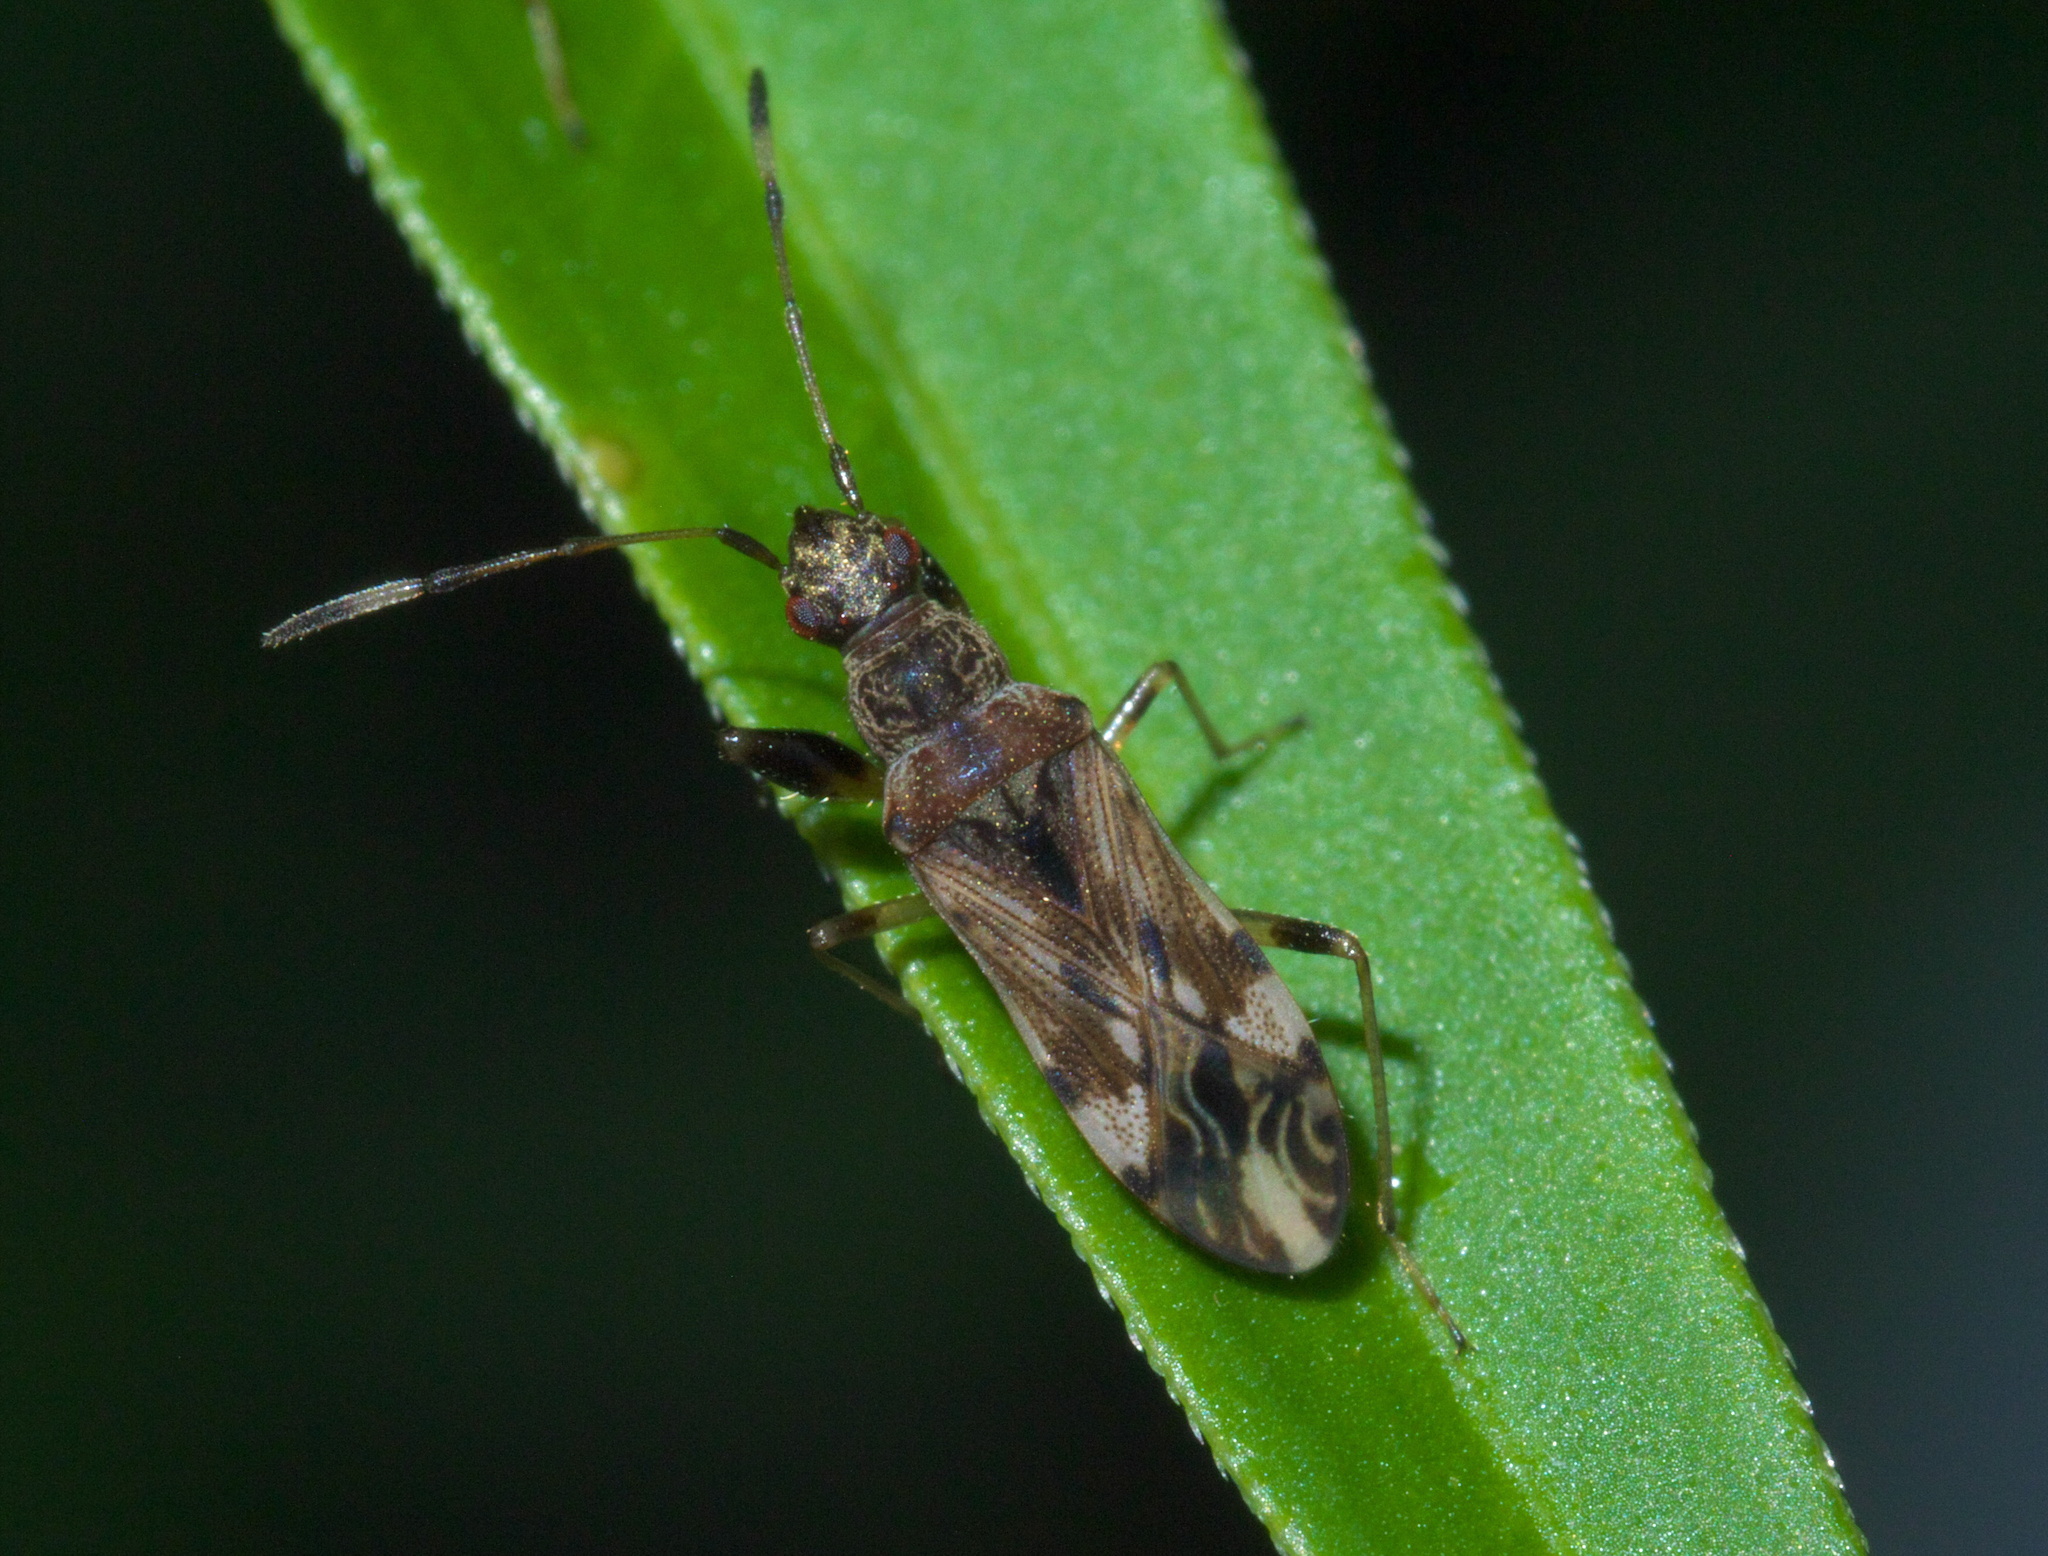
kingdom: Animalia
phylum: Arthropoda
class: Insecta
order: Hemiptera
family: Rhyparochromidae
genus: Neopamera
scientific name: Neopamera albocincta
